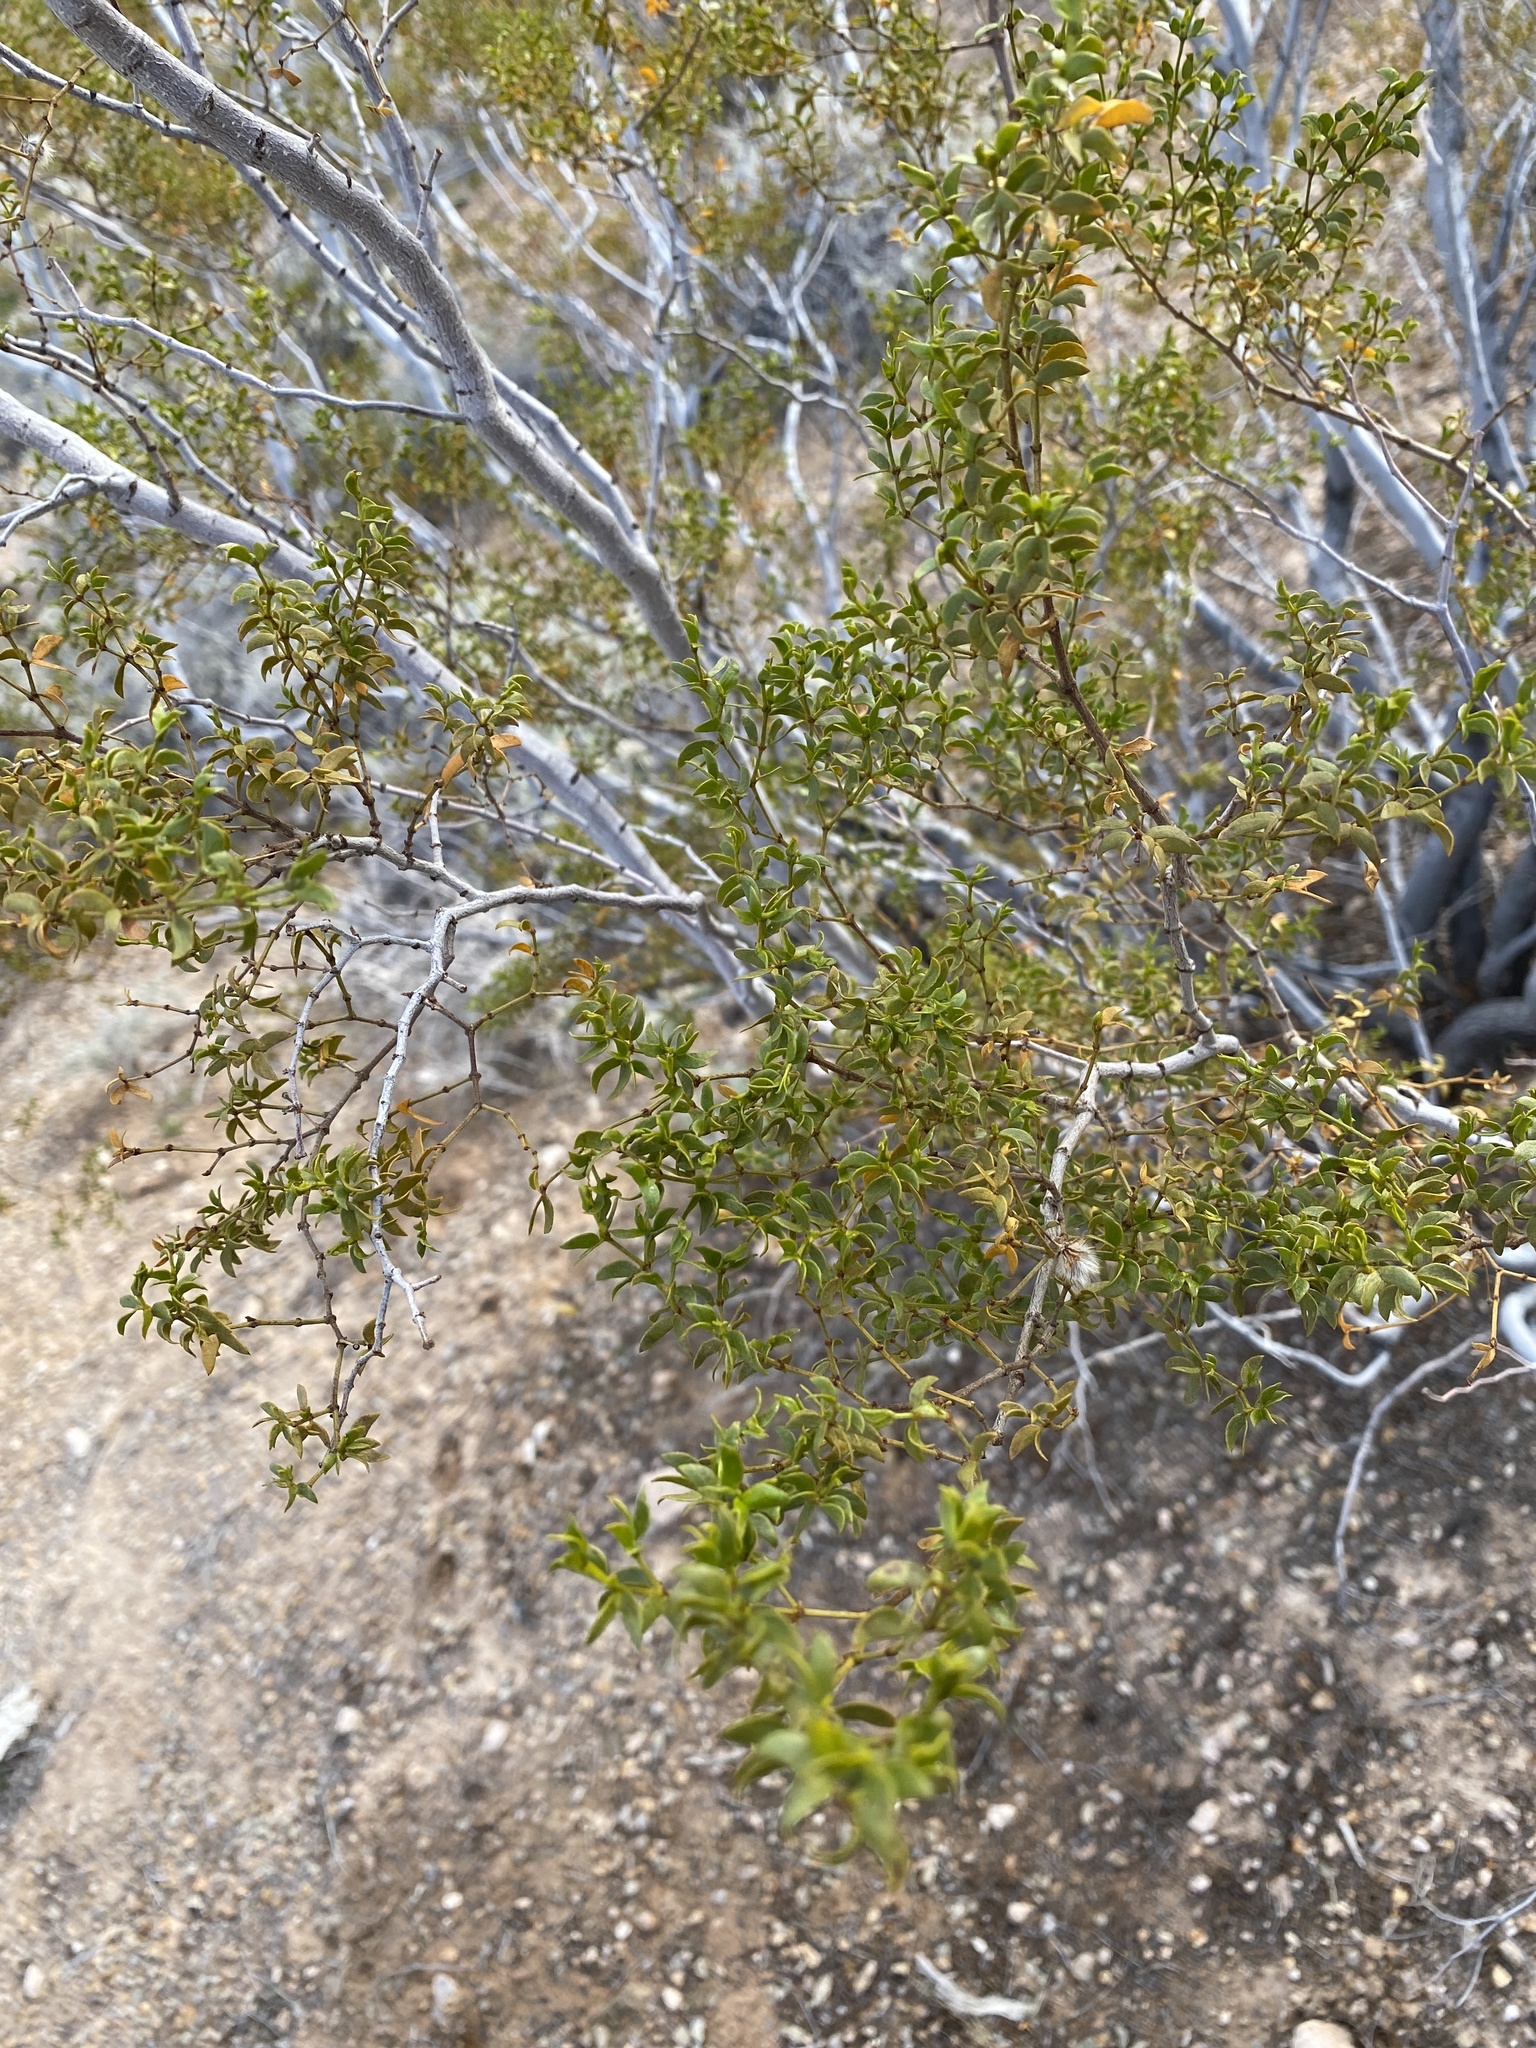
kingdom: Plantae
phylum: Tracheophyta
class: Magnoliopsida
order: Zygophyllales
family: Zygophyllaceae
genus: Larrea
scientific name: Larrea tridentata
